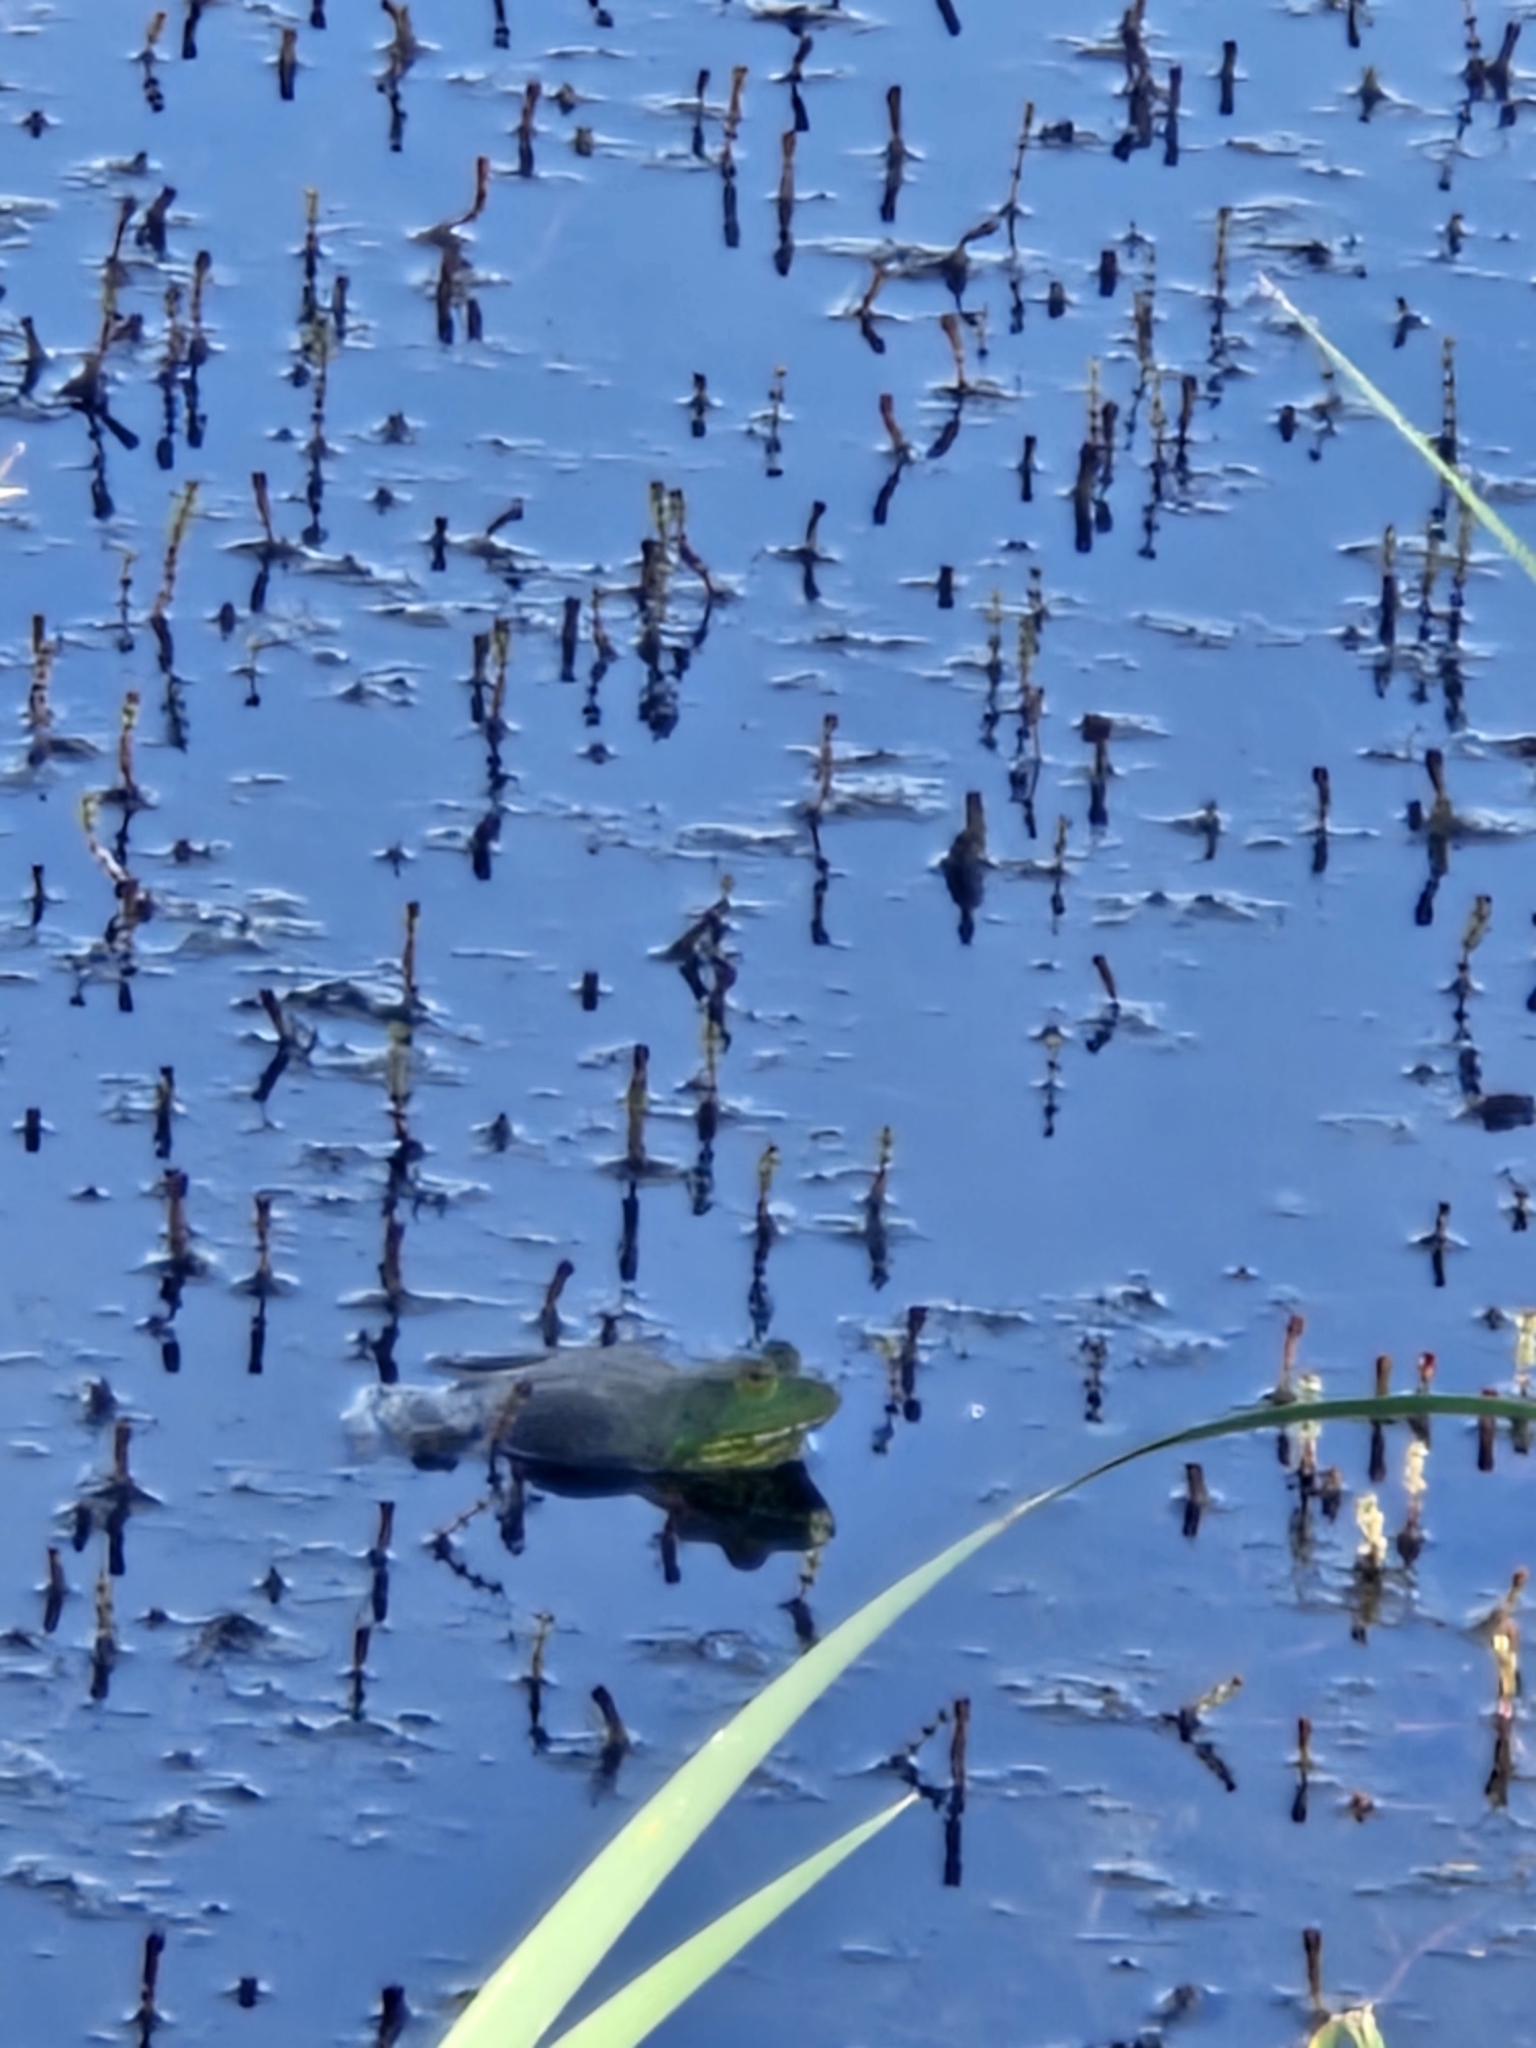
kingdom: Animalia
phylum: Chordata
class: Amphibia
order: Anura
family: Ranidae
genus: Lithobates
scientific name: Lithobates catesbeianus
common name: American bullfrog
